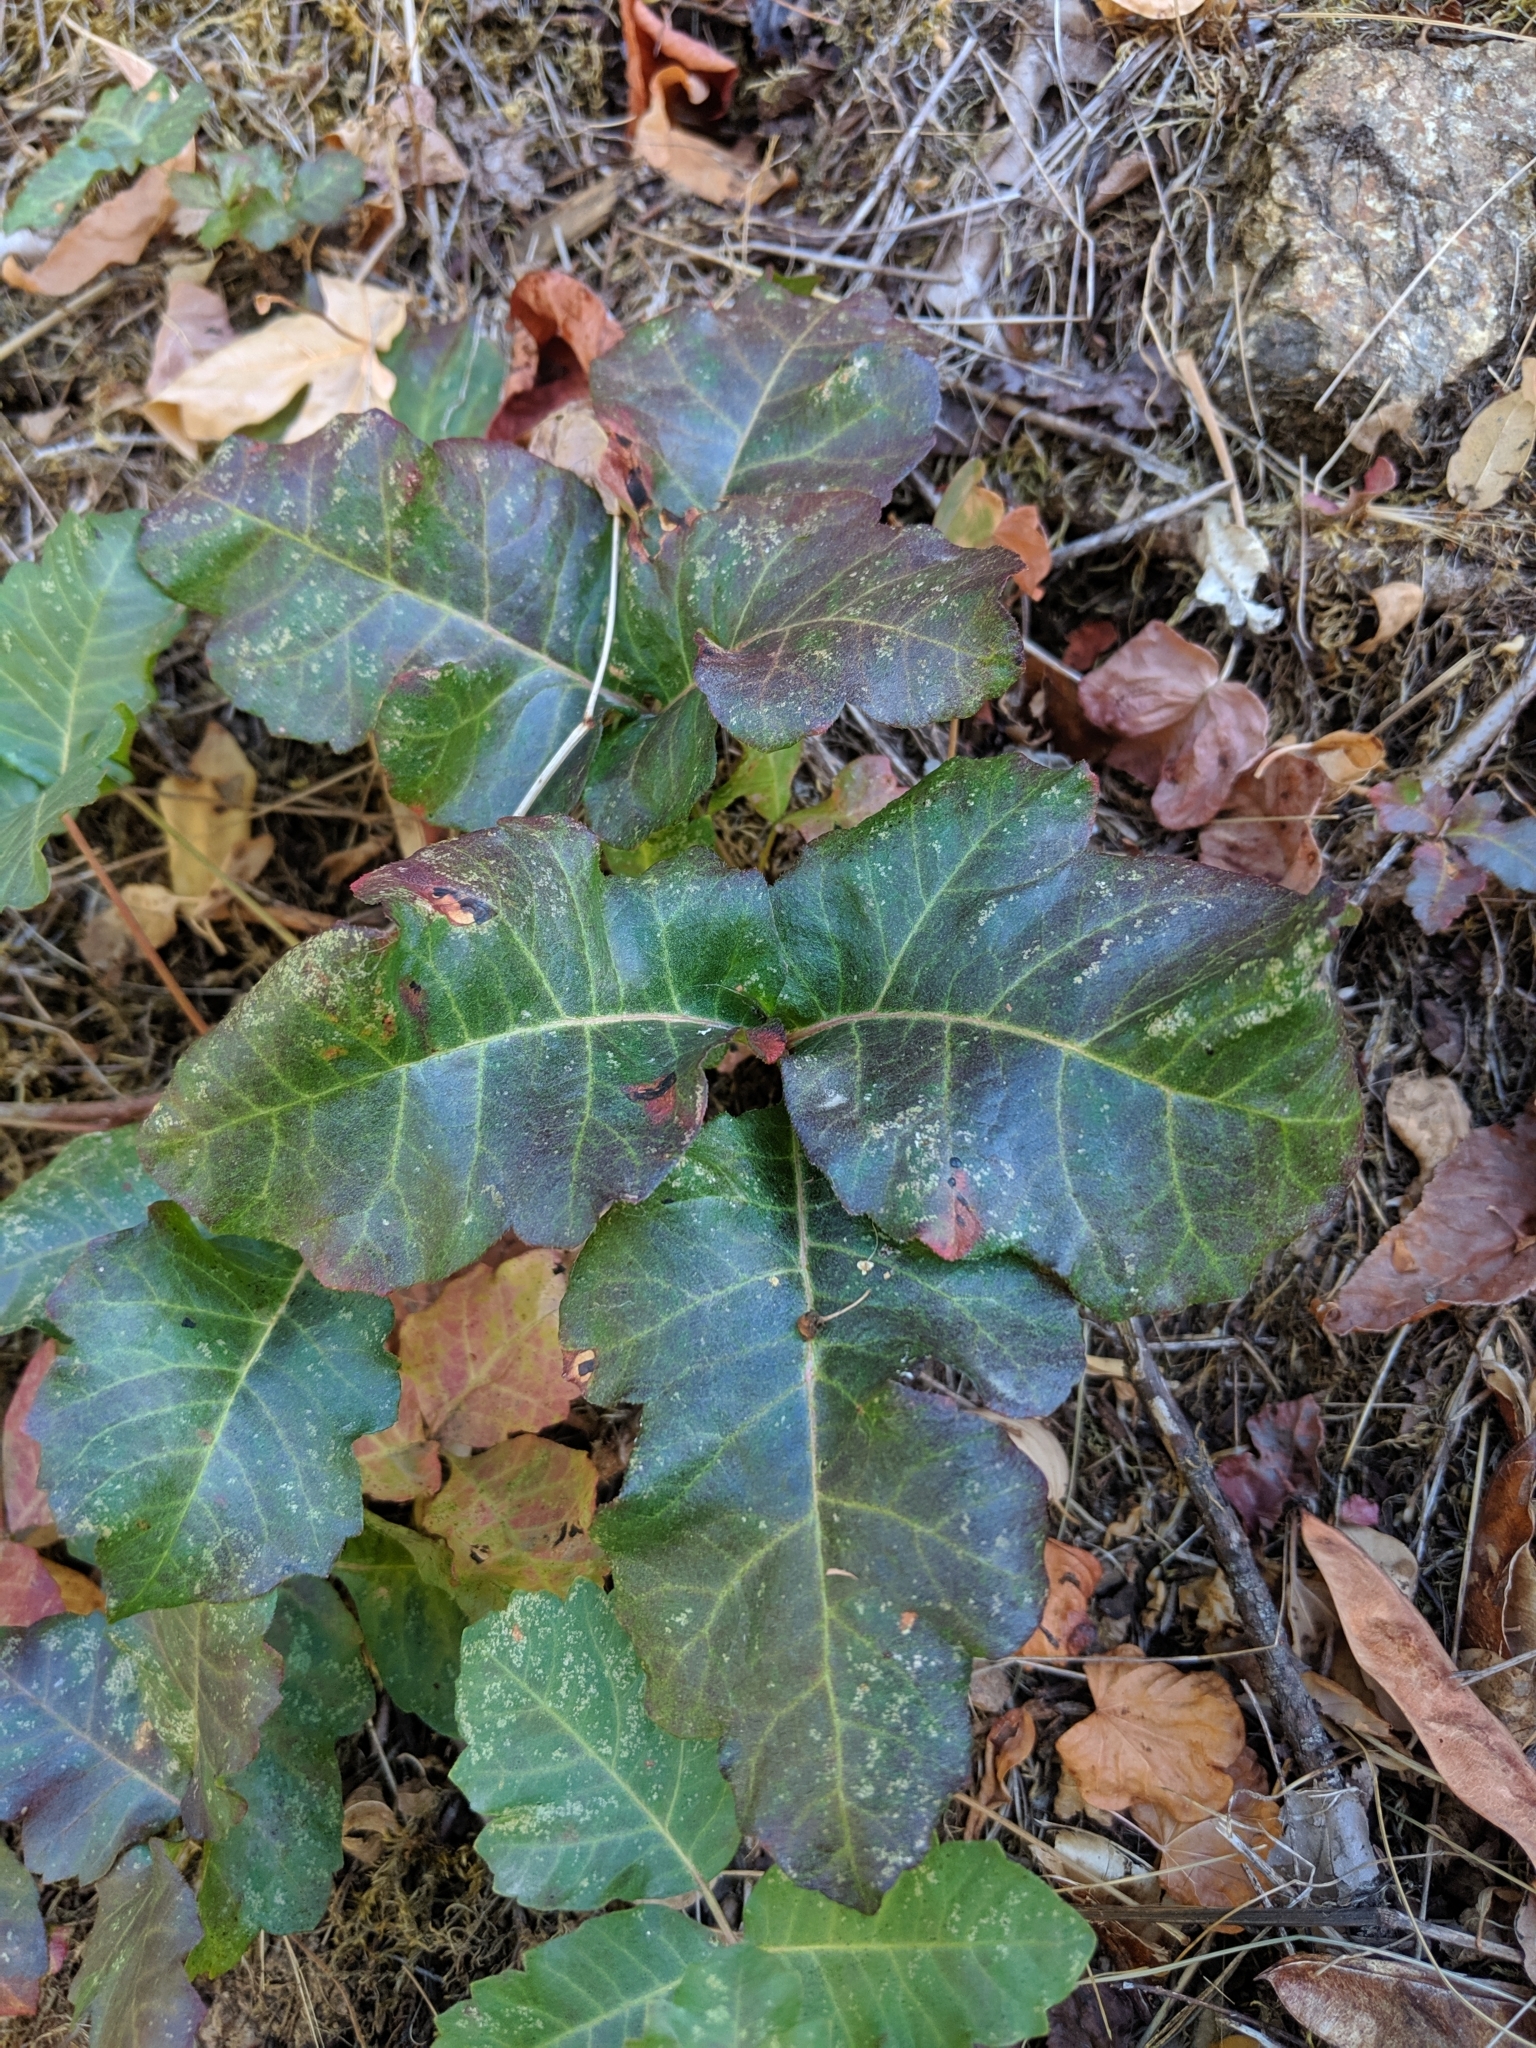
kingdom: Plantae
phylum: Tracheophyta
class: Magnoliopsida
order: Sapindales
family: Anacardiaceae
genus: Toxicodendron
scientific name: Toxicodendron diversilobum
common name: Pacific poison-oak
